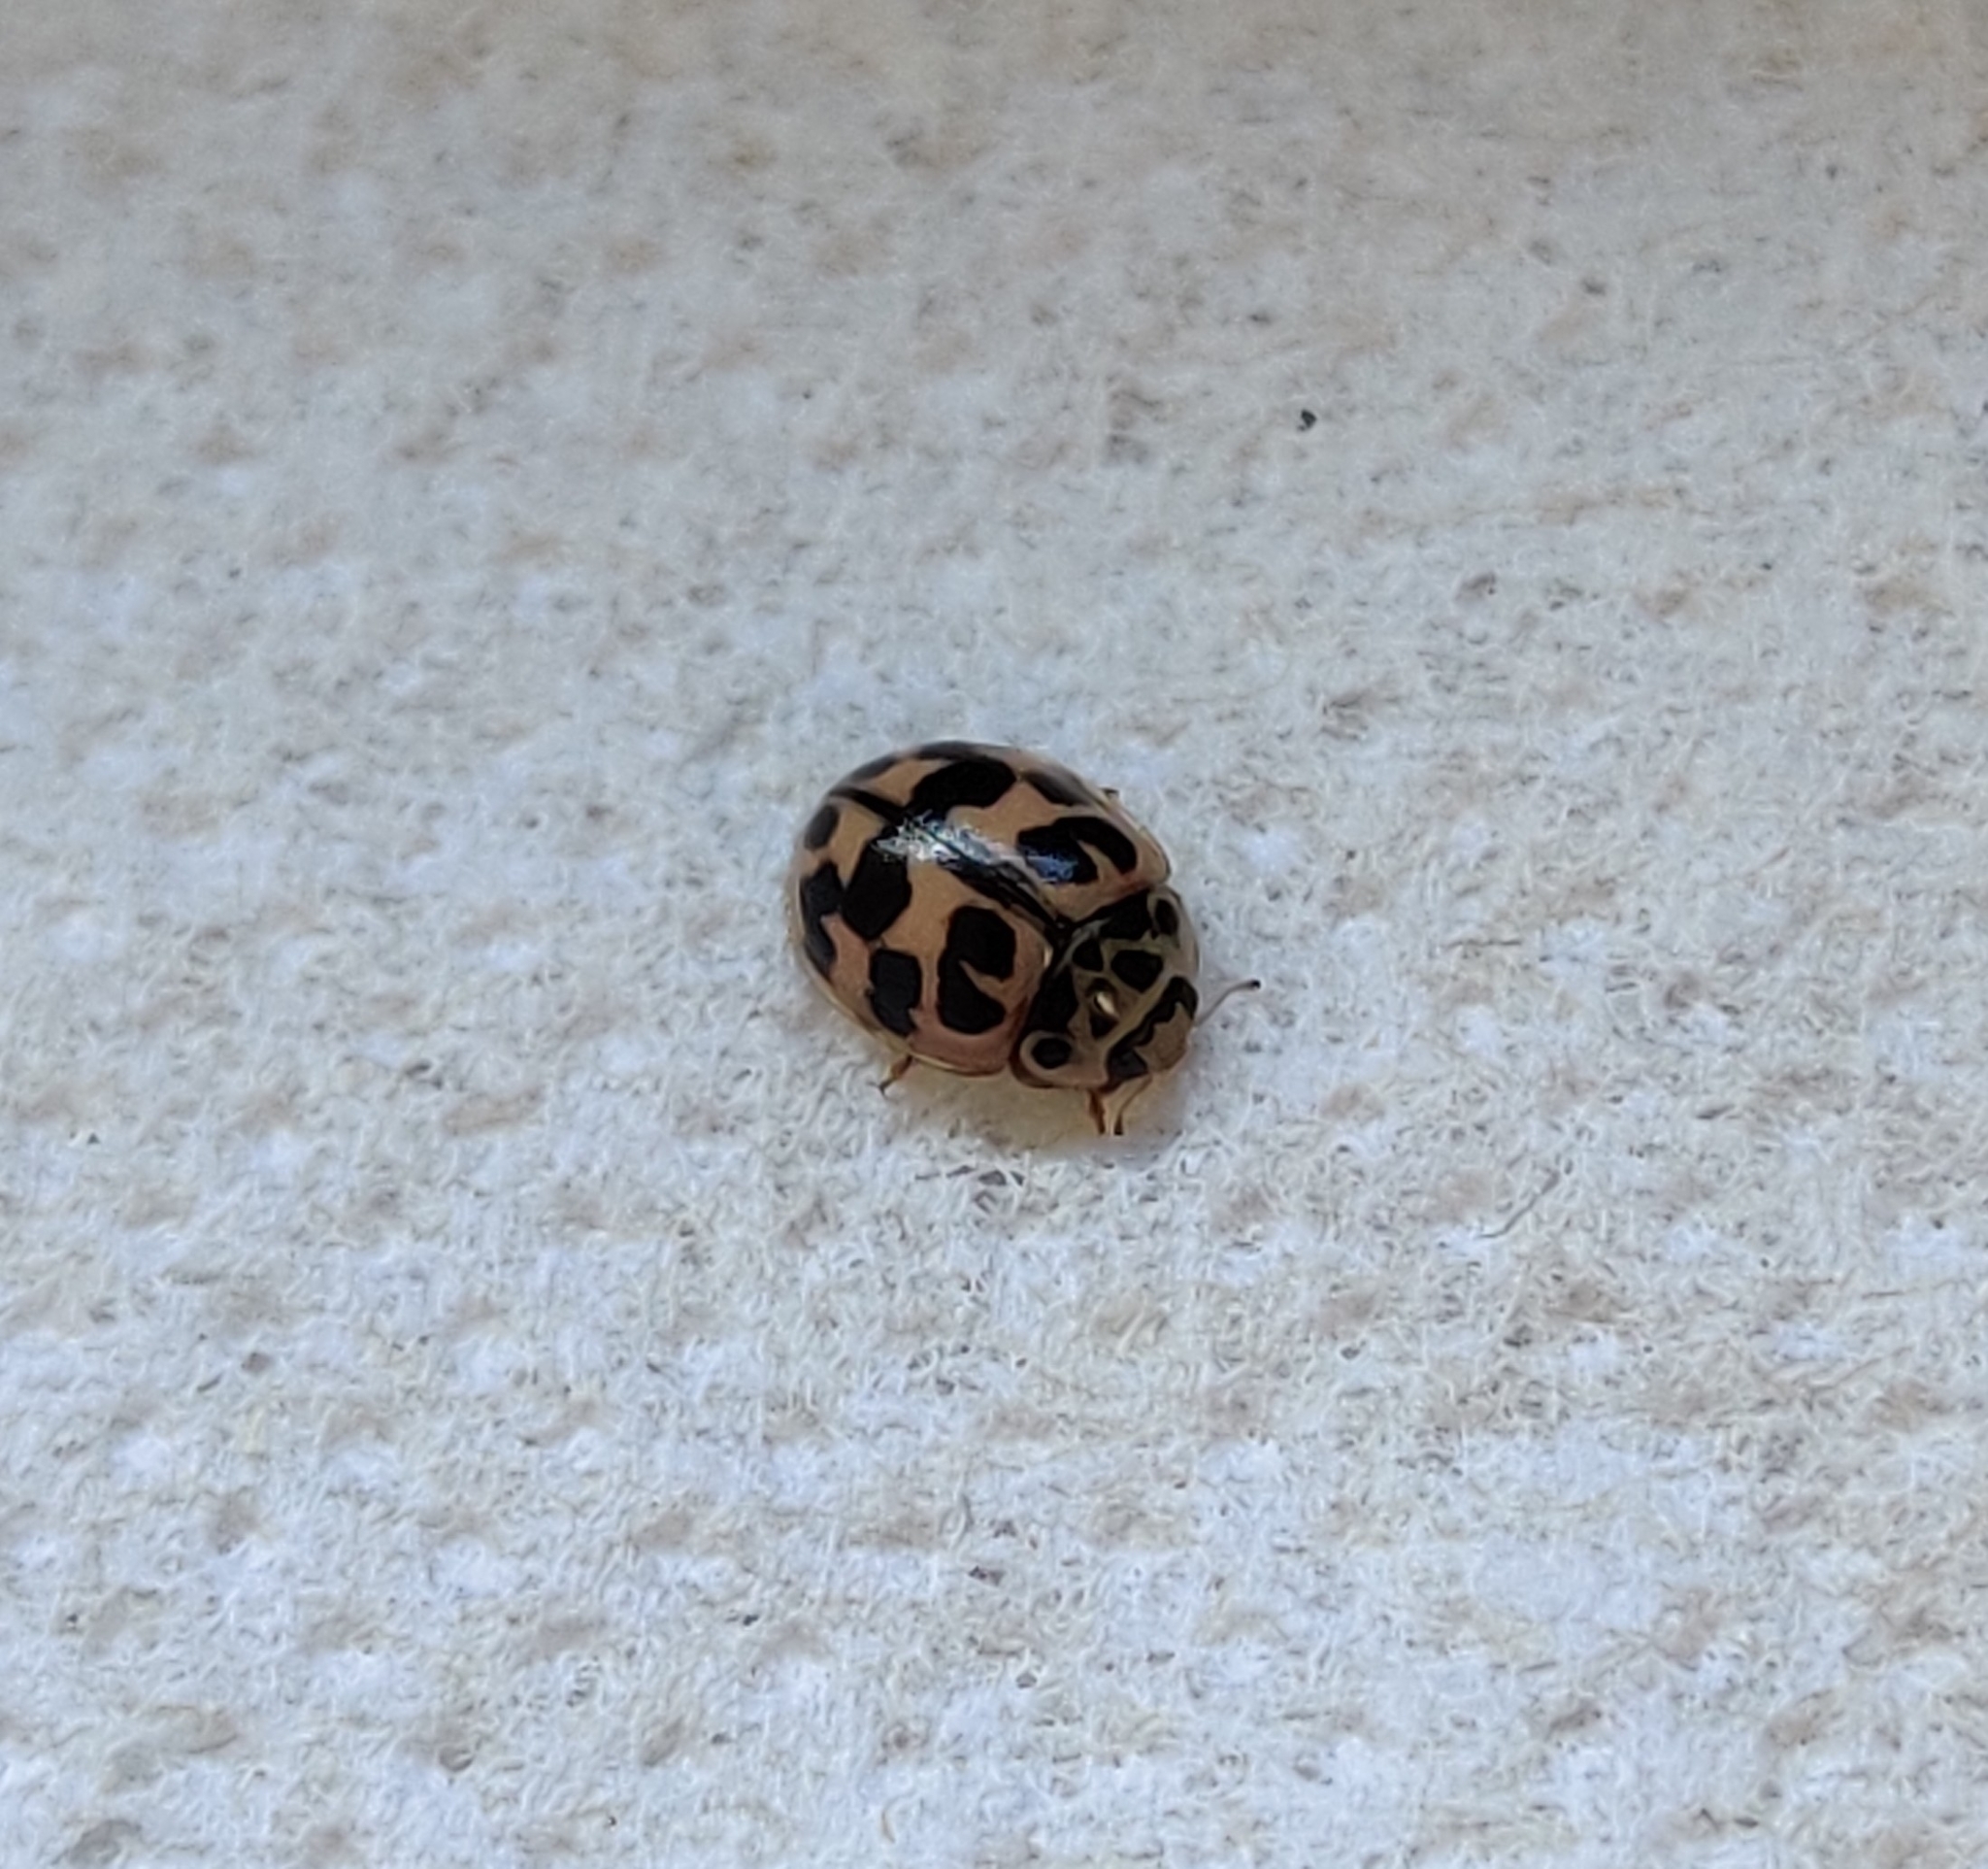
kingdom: Animalia
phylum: Arthropoda
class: Insecta
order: Coleoptera
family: Coccinellidae
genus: Oenopia
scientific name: Oenopia conglobata
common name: Ladybird beetle
